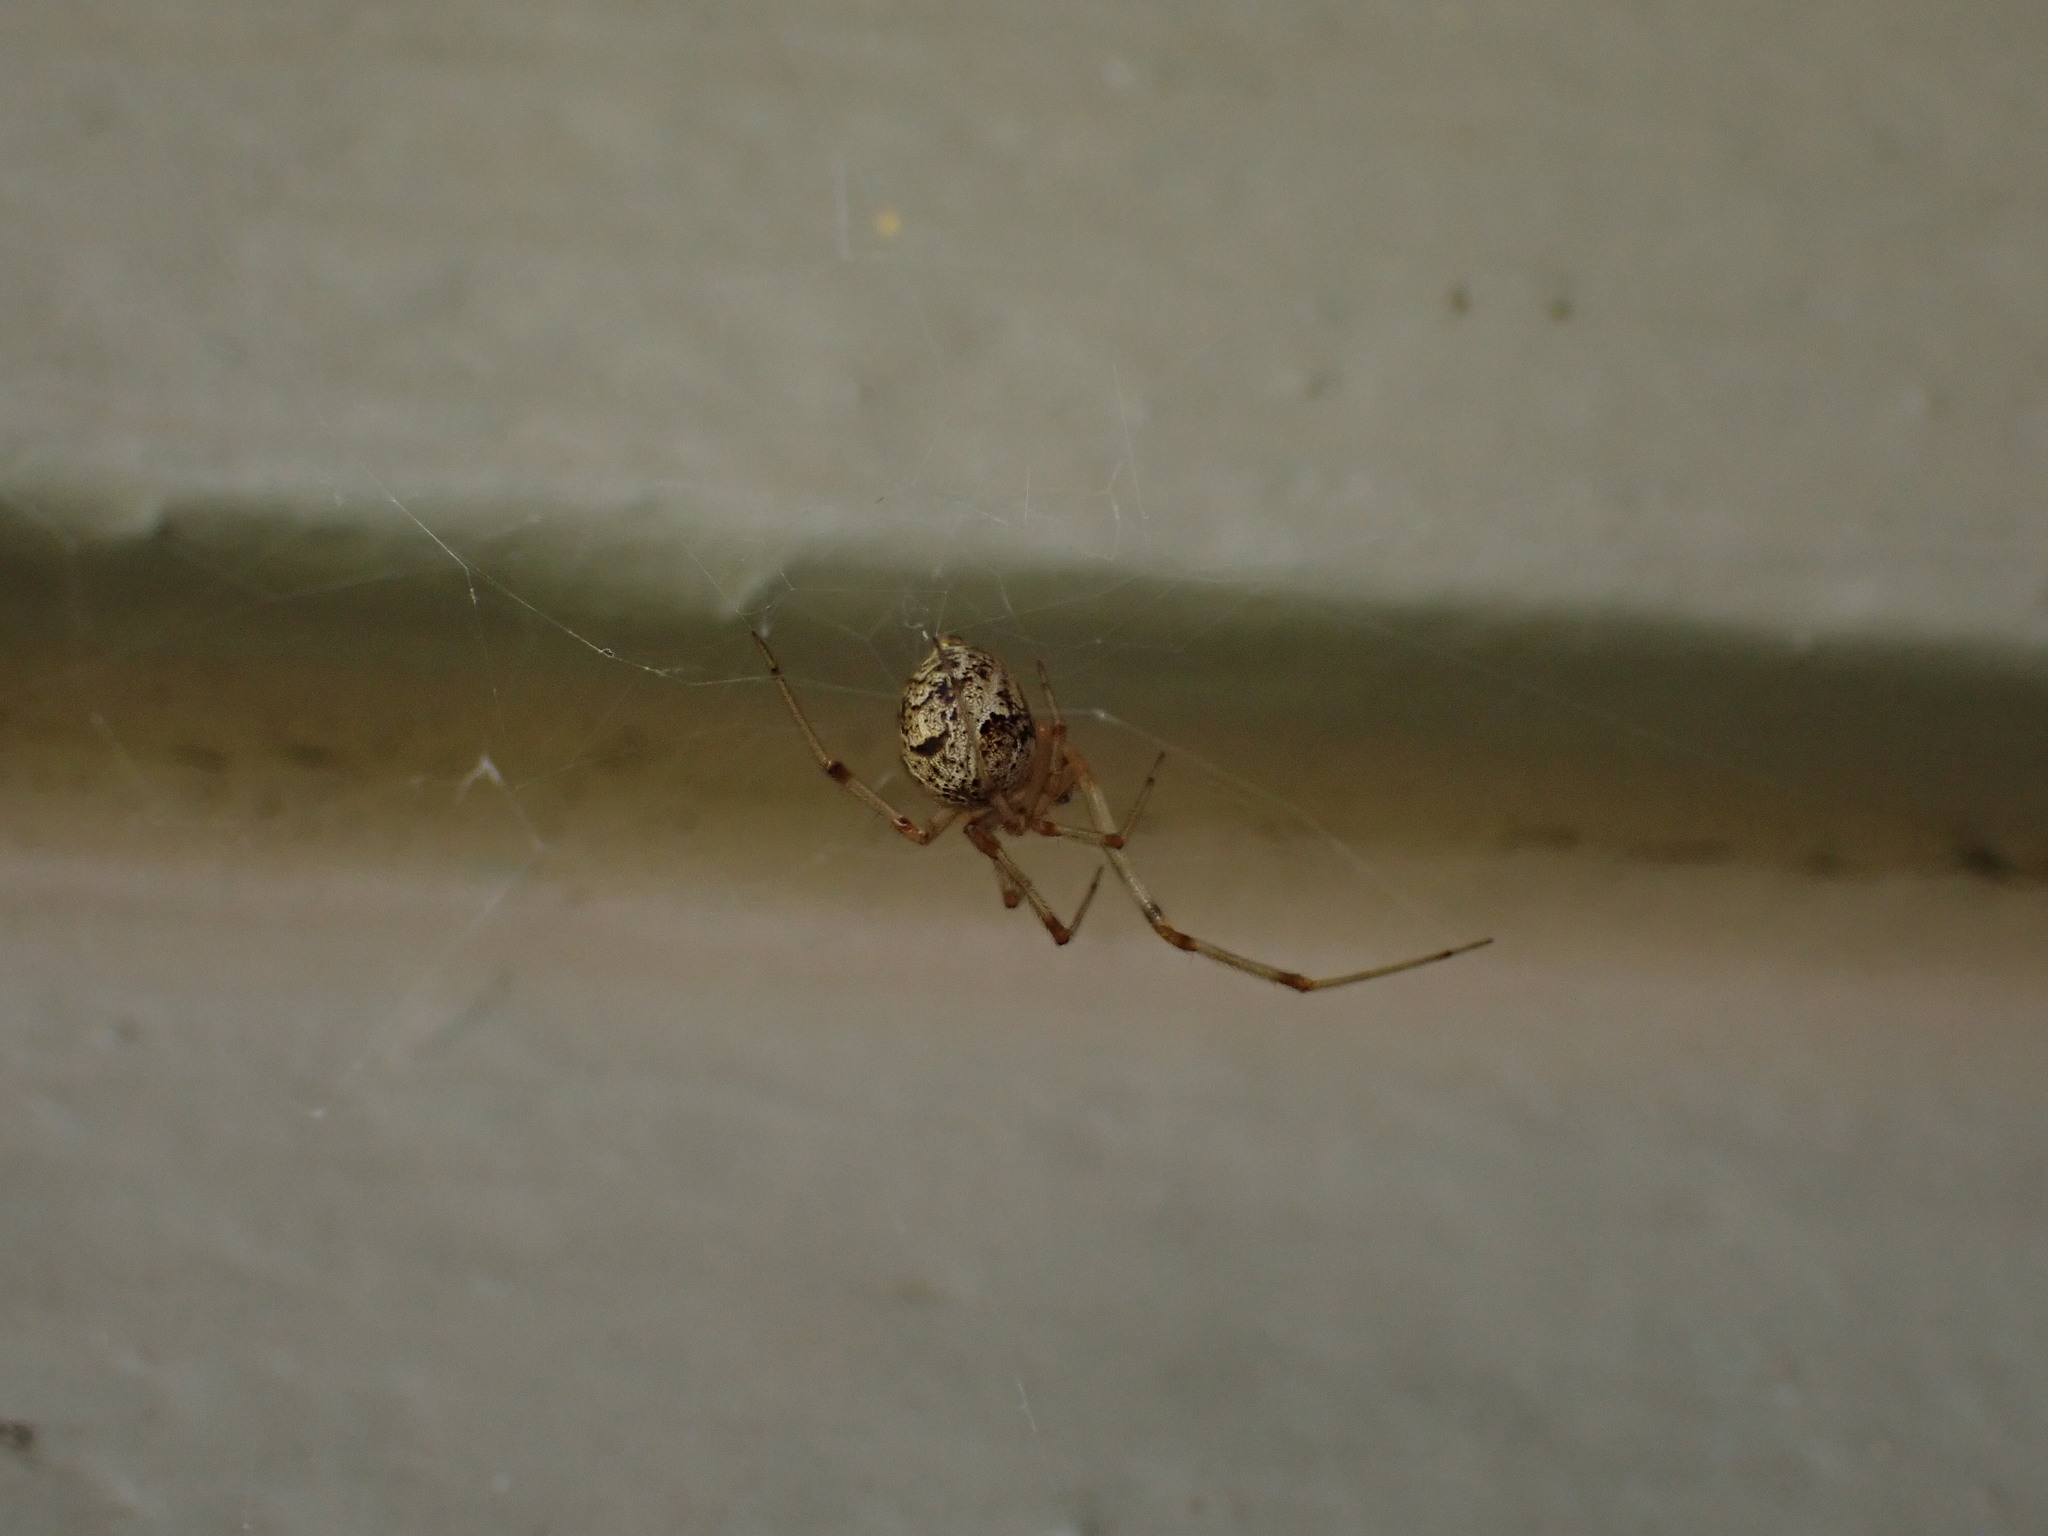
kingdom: Animalia
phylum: Arthropoda
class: Arachnida
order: Araneae
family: Theridiidae
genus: Parasteatoda
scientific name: Parasteatoda tepidariorum
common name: Common house spider
